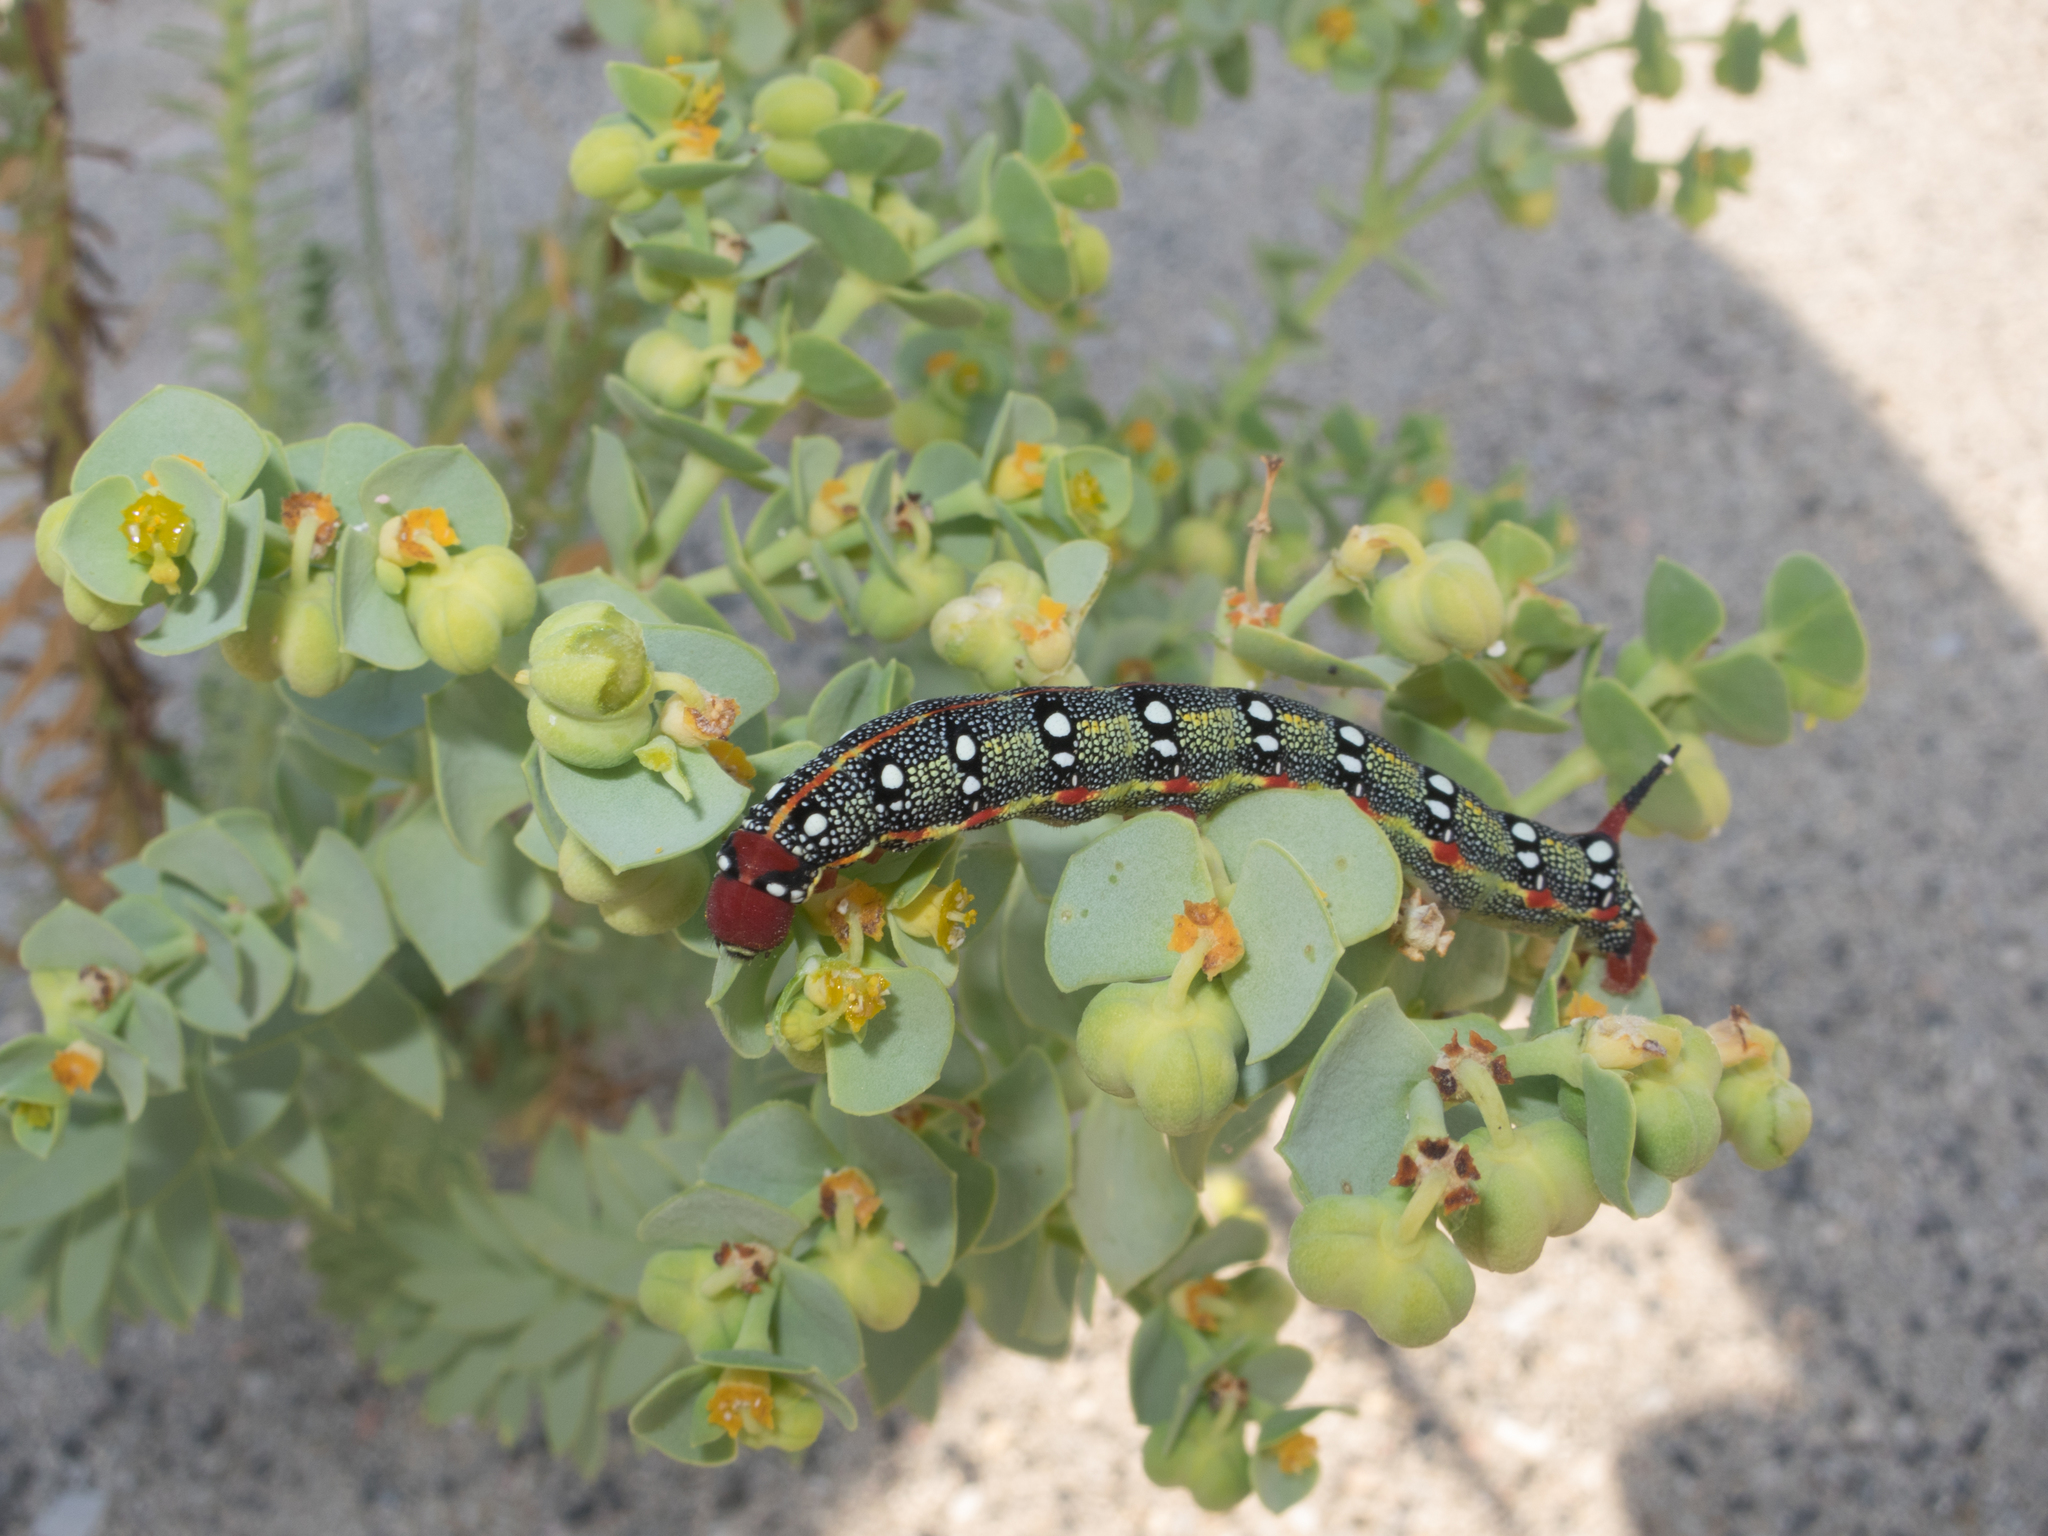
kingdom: Animalia
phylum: Arthropoda
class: Insecta
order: Lepidoptera
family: Sphingidae
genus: Hyles
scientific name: Hyles euphorbiae
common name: Spurge hawk-moth
